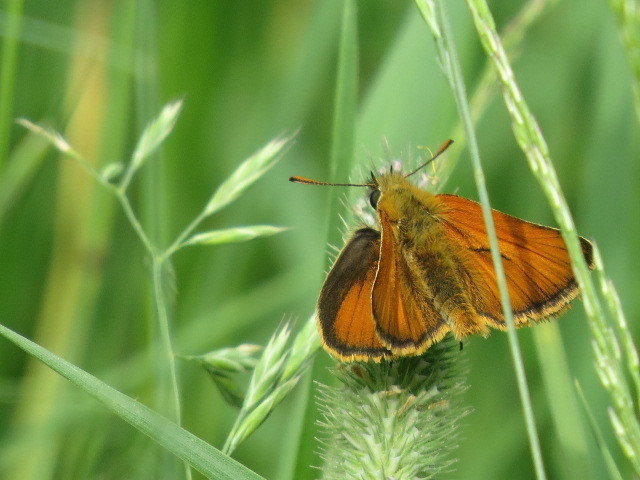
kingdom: Animalia
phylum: Arthropoda
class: Insecta
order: Lepidoptera
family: Hesperiidae
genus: Thymelicus
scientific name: Thymelicus sylvestris
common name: Small skipper
